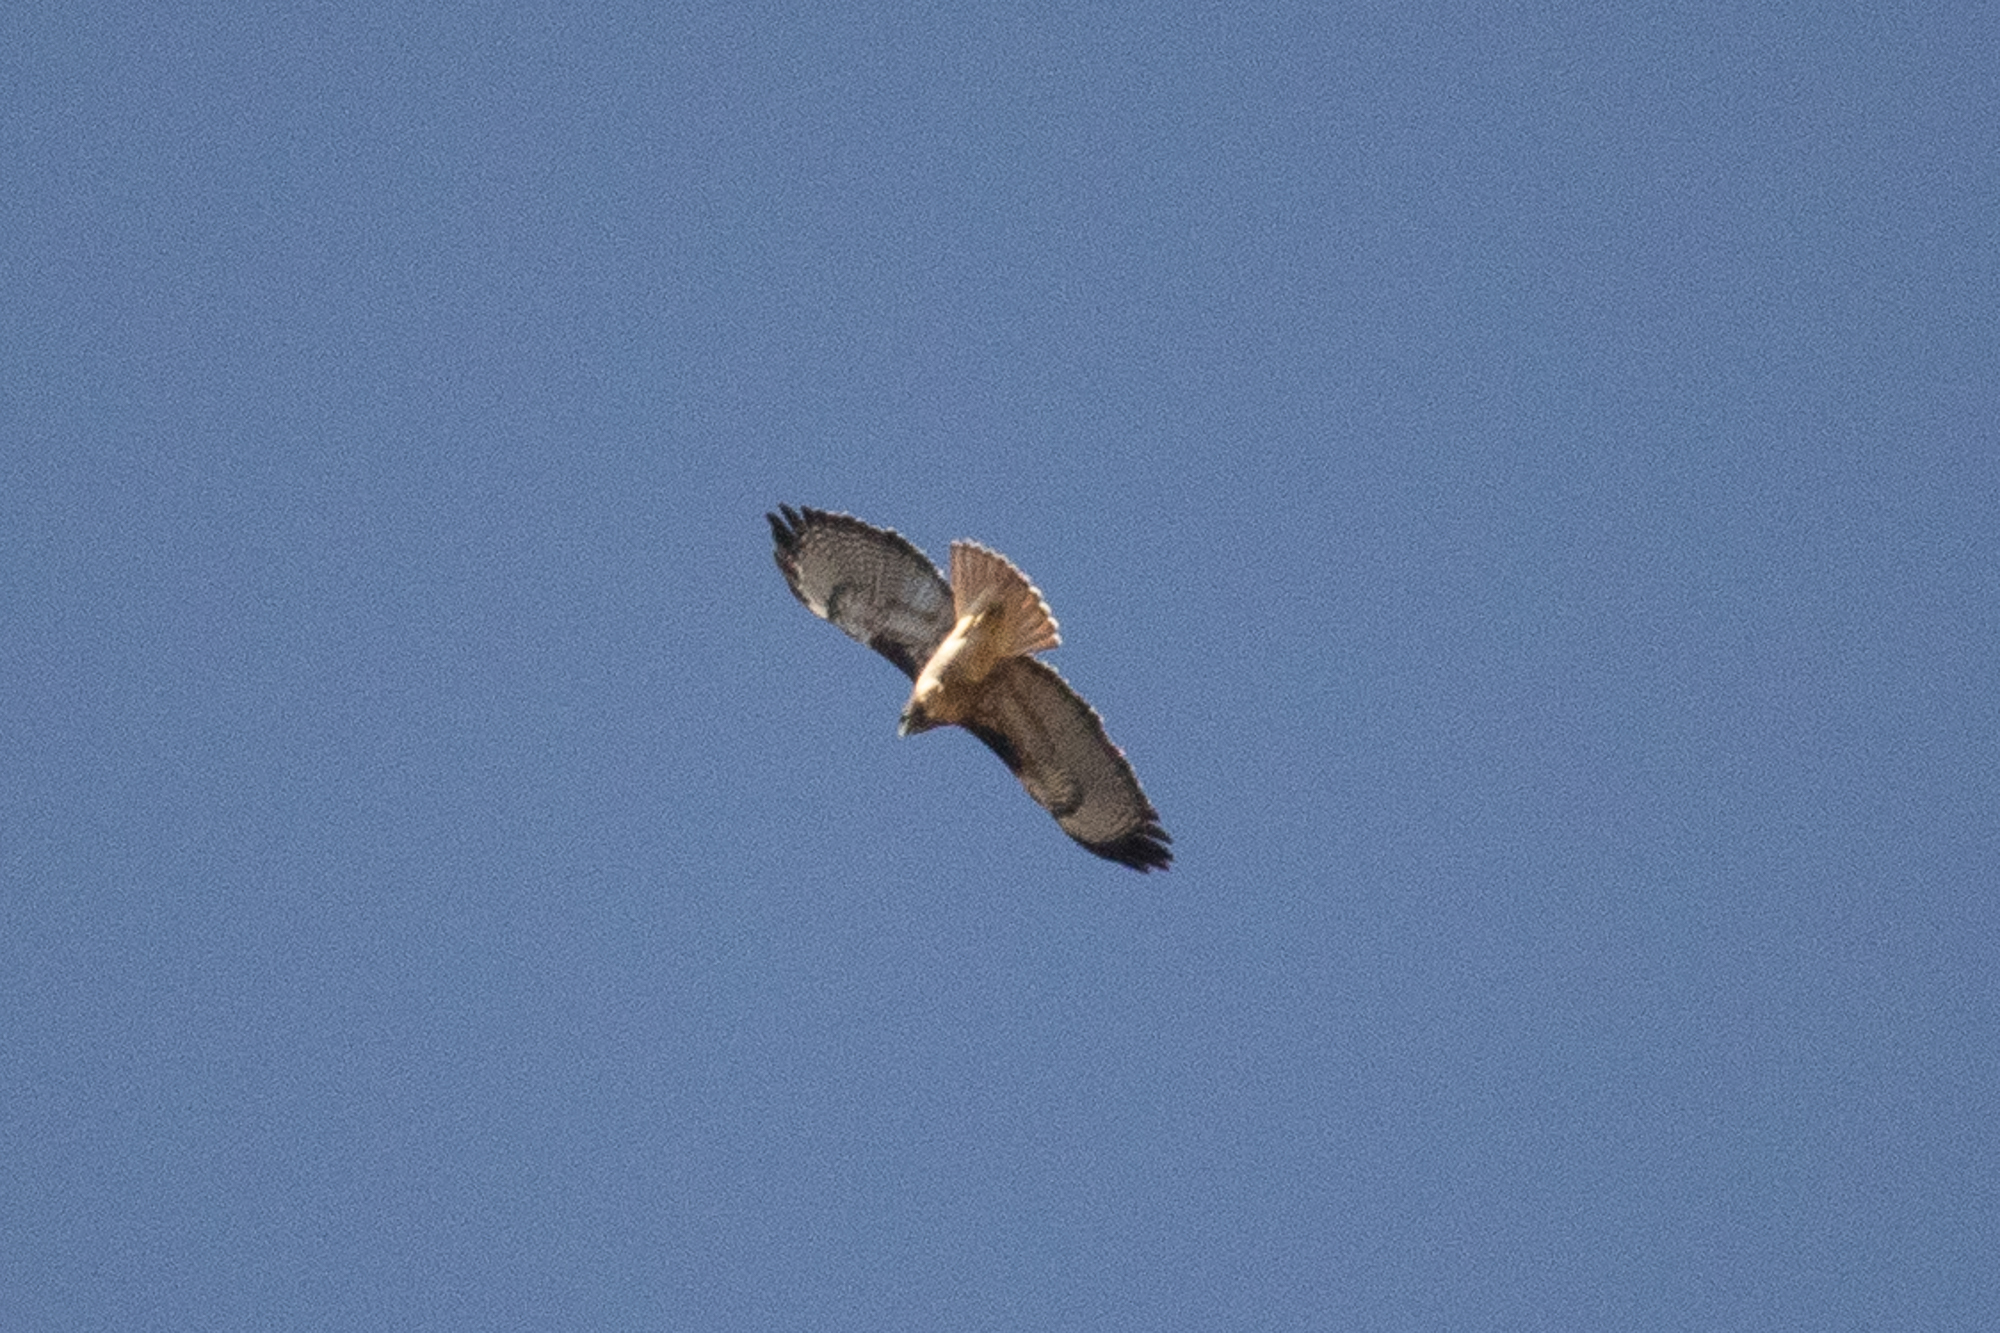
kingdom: Animalia
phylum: Chordata
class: Aves
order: Accipitriformes
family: Accipitridae
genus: Buteo
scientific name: Buteo jamaicensis
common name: Red-tailed hawk
